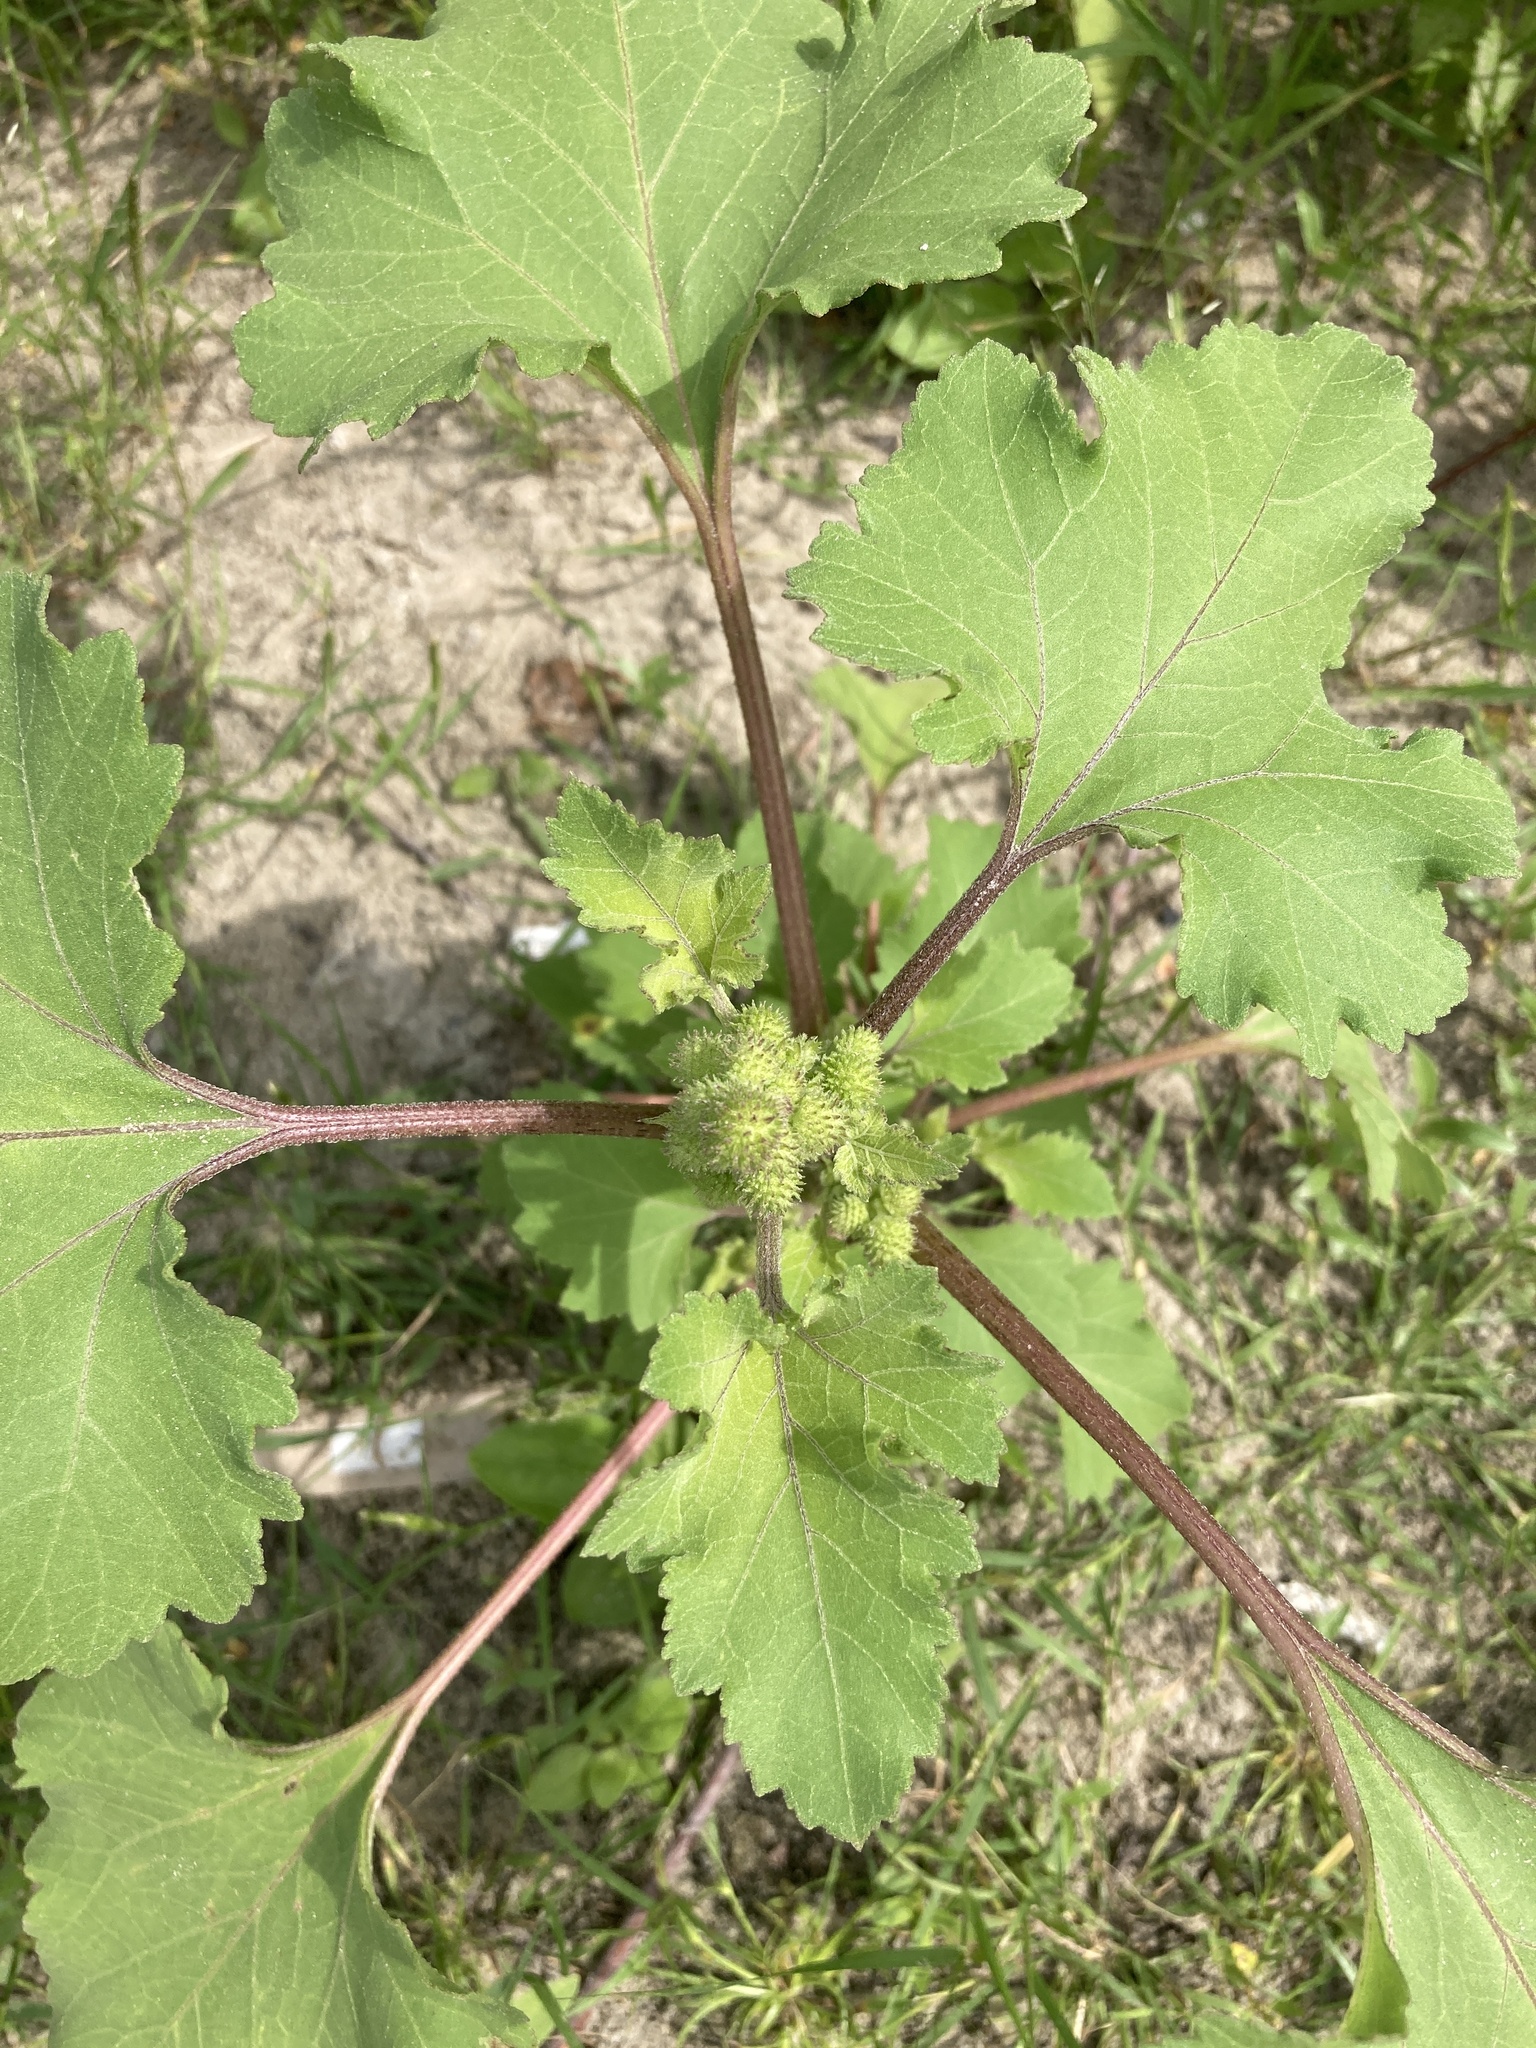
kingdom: Plantae
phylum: Tracheophyta
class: Magnoliopsida
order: Asterales
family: Asteraceae
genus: Xanthium
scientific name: Xanthium orientale
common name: Californian burr
